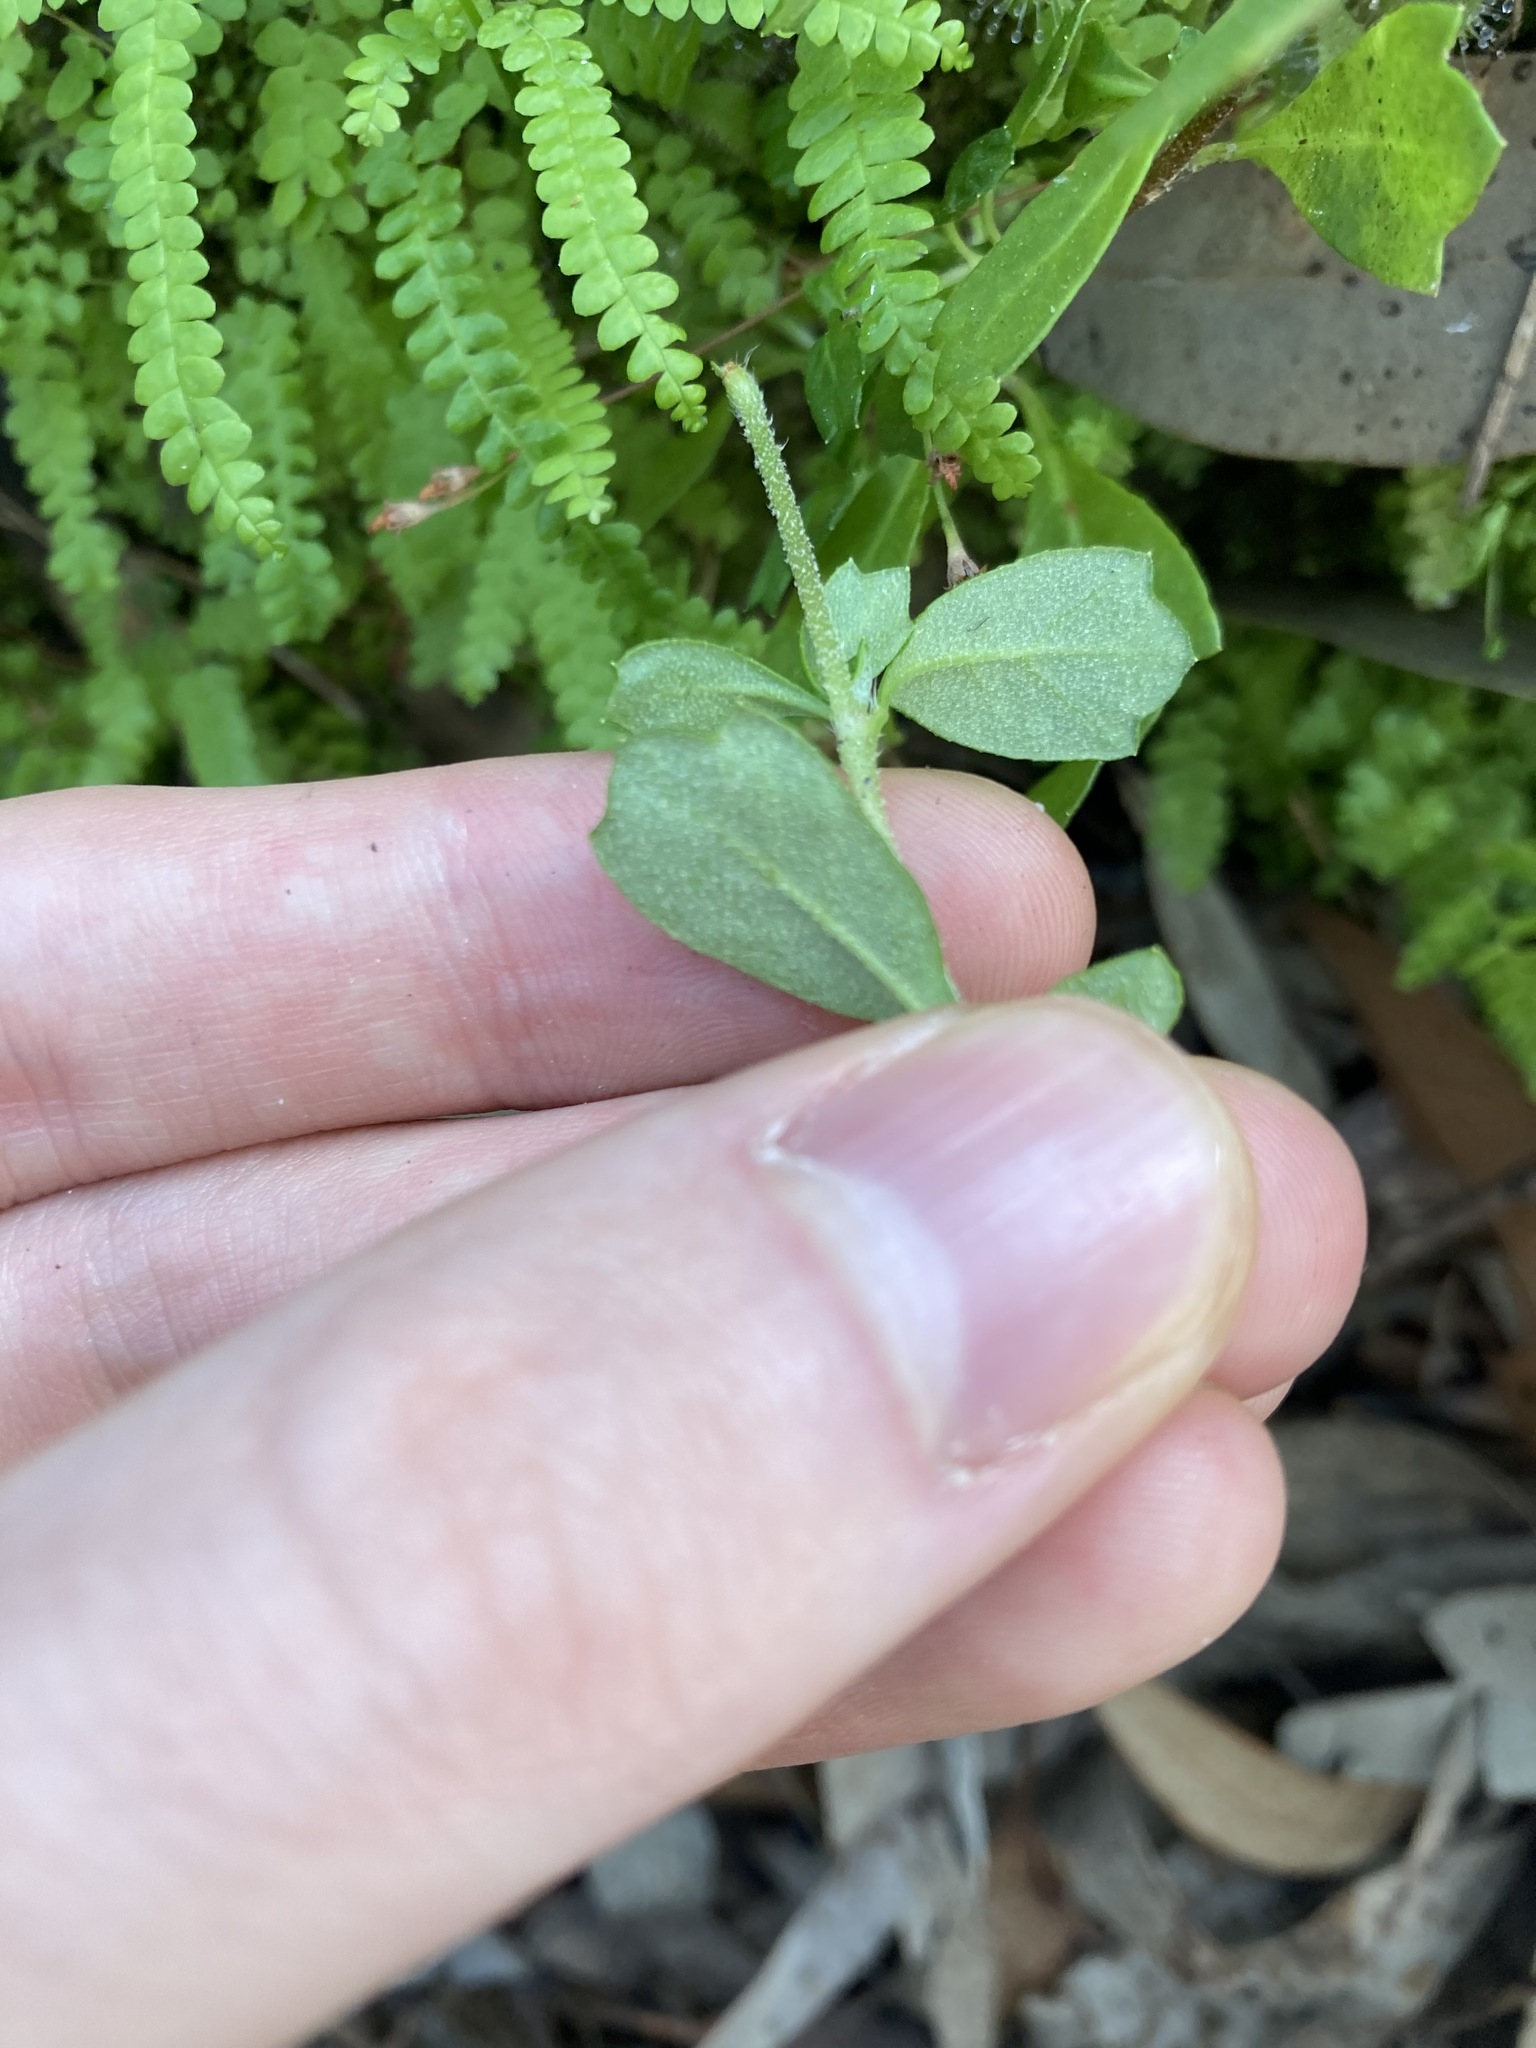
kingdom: Plantae
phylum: Tracheophyta
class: Magnoliopsida
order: Apiales
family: Apiaceae
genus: Xanthosia
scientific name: Xanthosia tridentata
